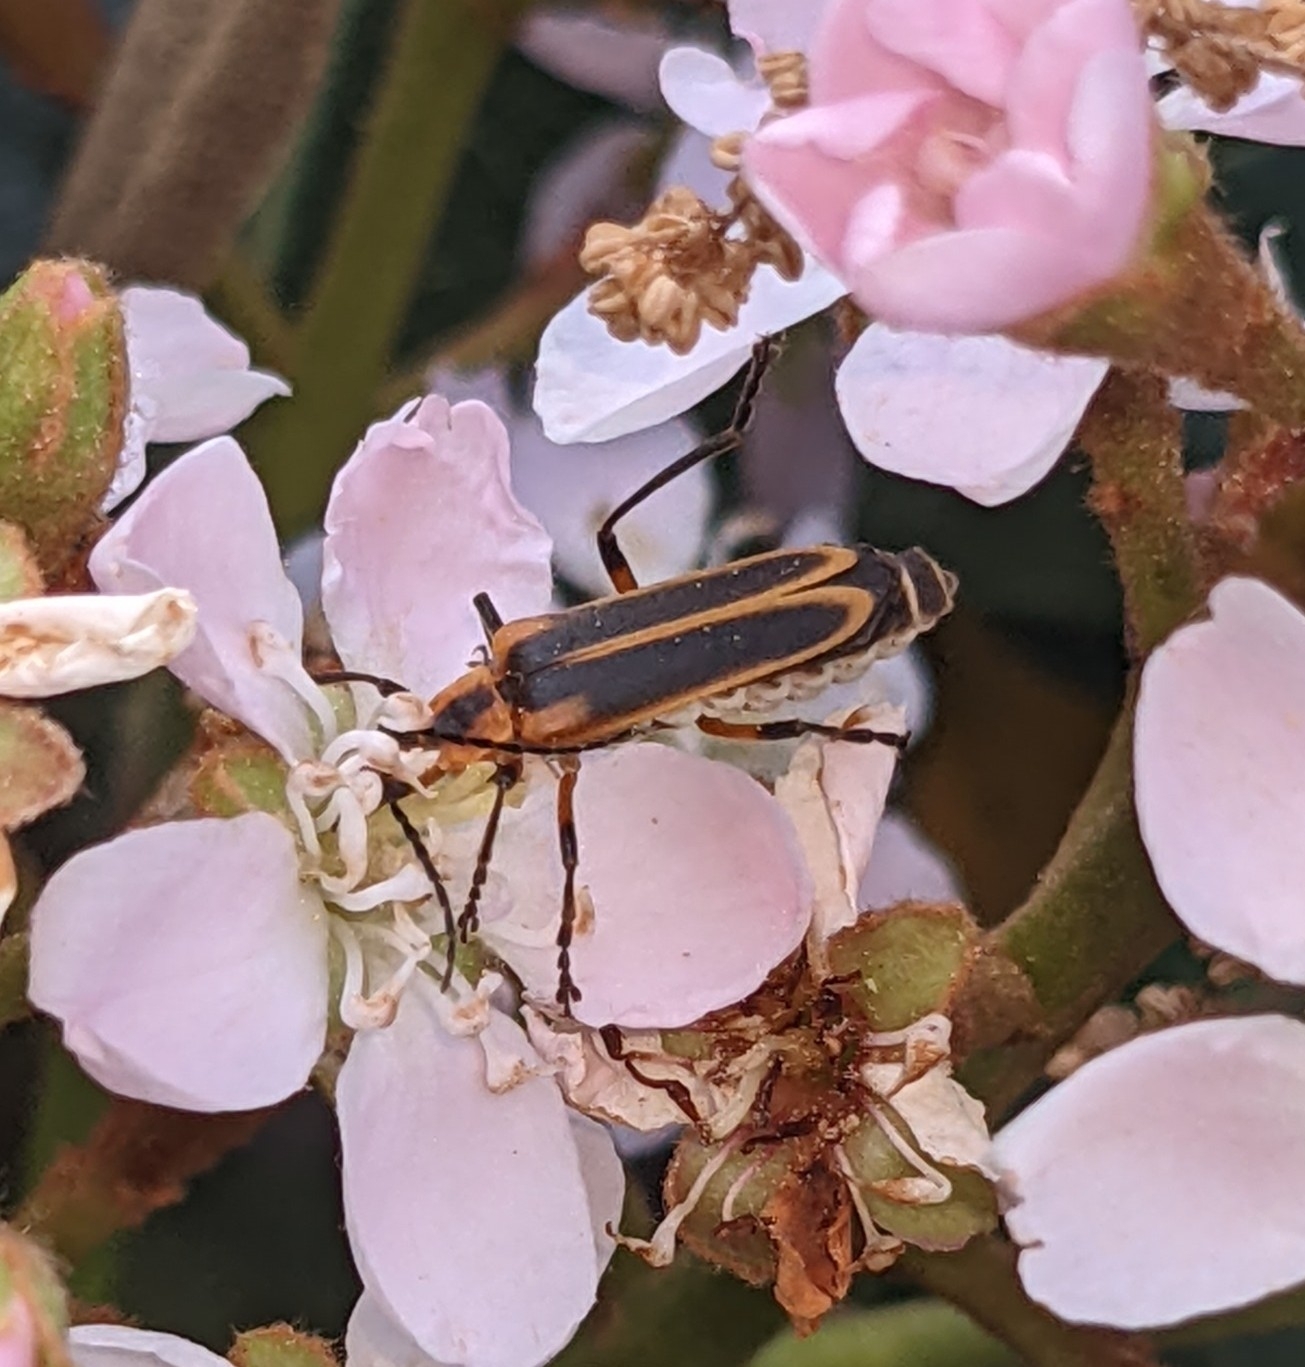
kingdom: Animalia
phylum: Arthropoda
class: Insecta
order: Coleoptera
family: Cantharidae
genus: Chauliognathus
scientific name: Chauliognathus marginatus
